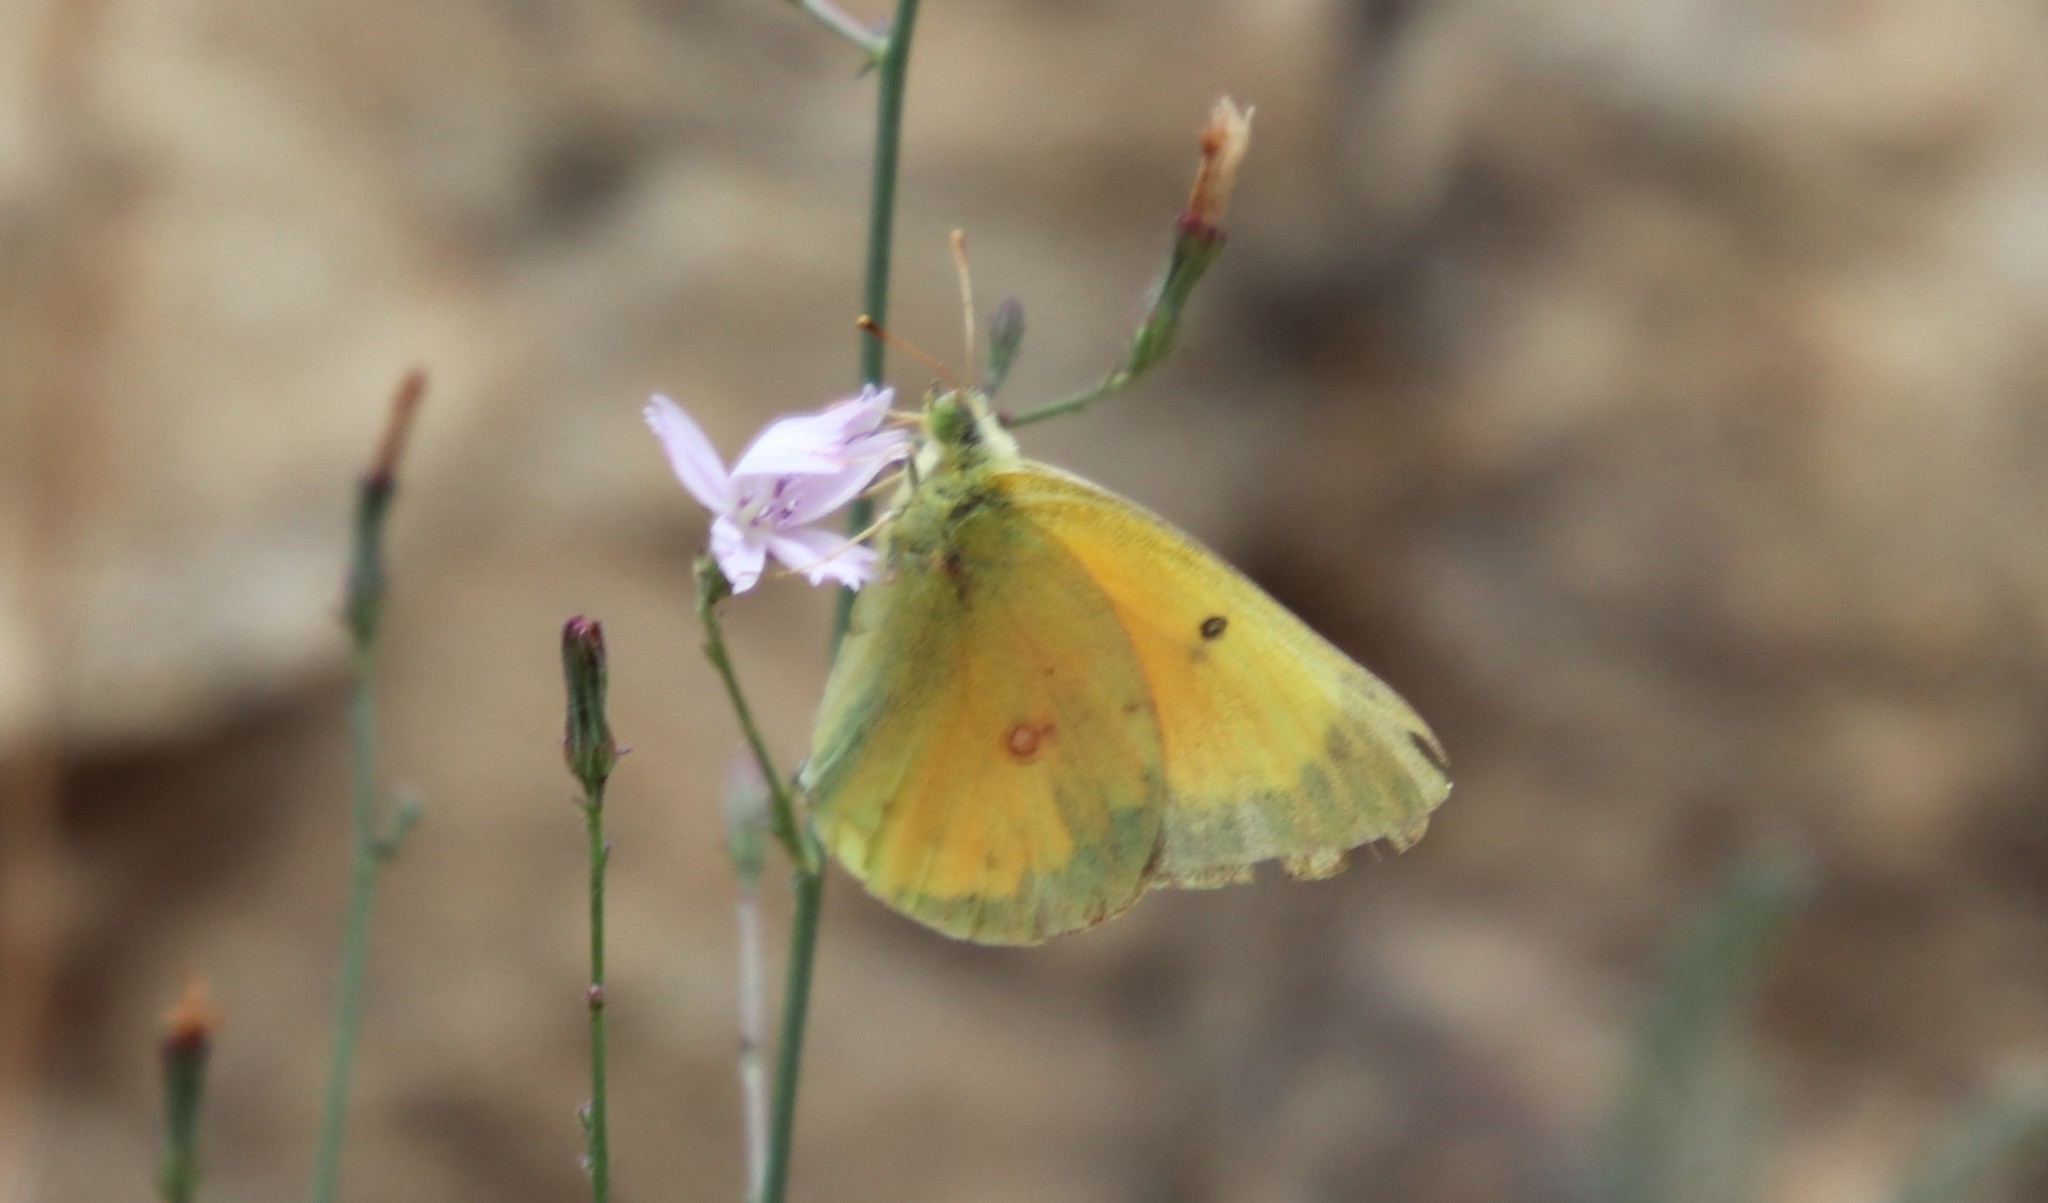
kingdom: Animalia
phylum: Arthropoda
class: Insecta
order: Lepidoptera
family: Pieridae
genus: Colias
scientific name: Colias eurytheme
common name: Alfalfa butterfly
